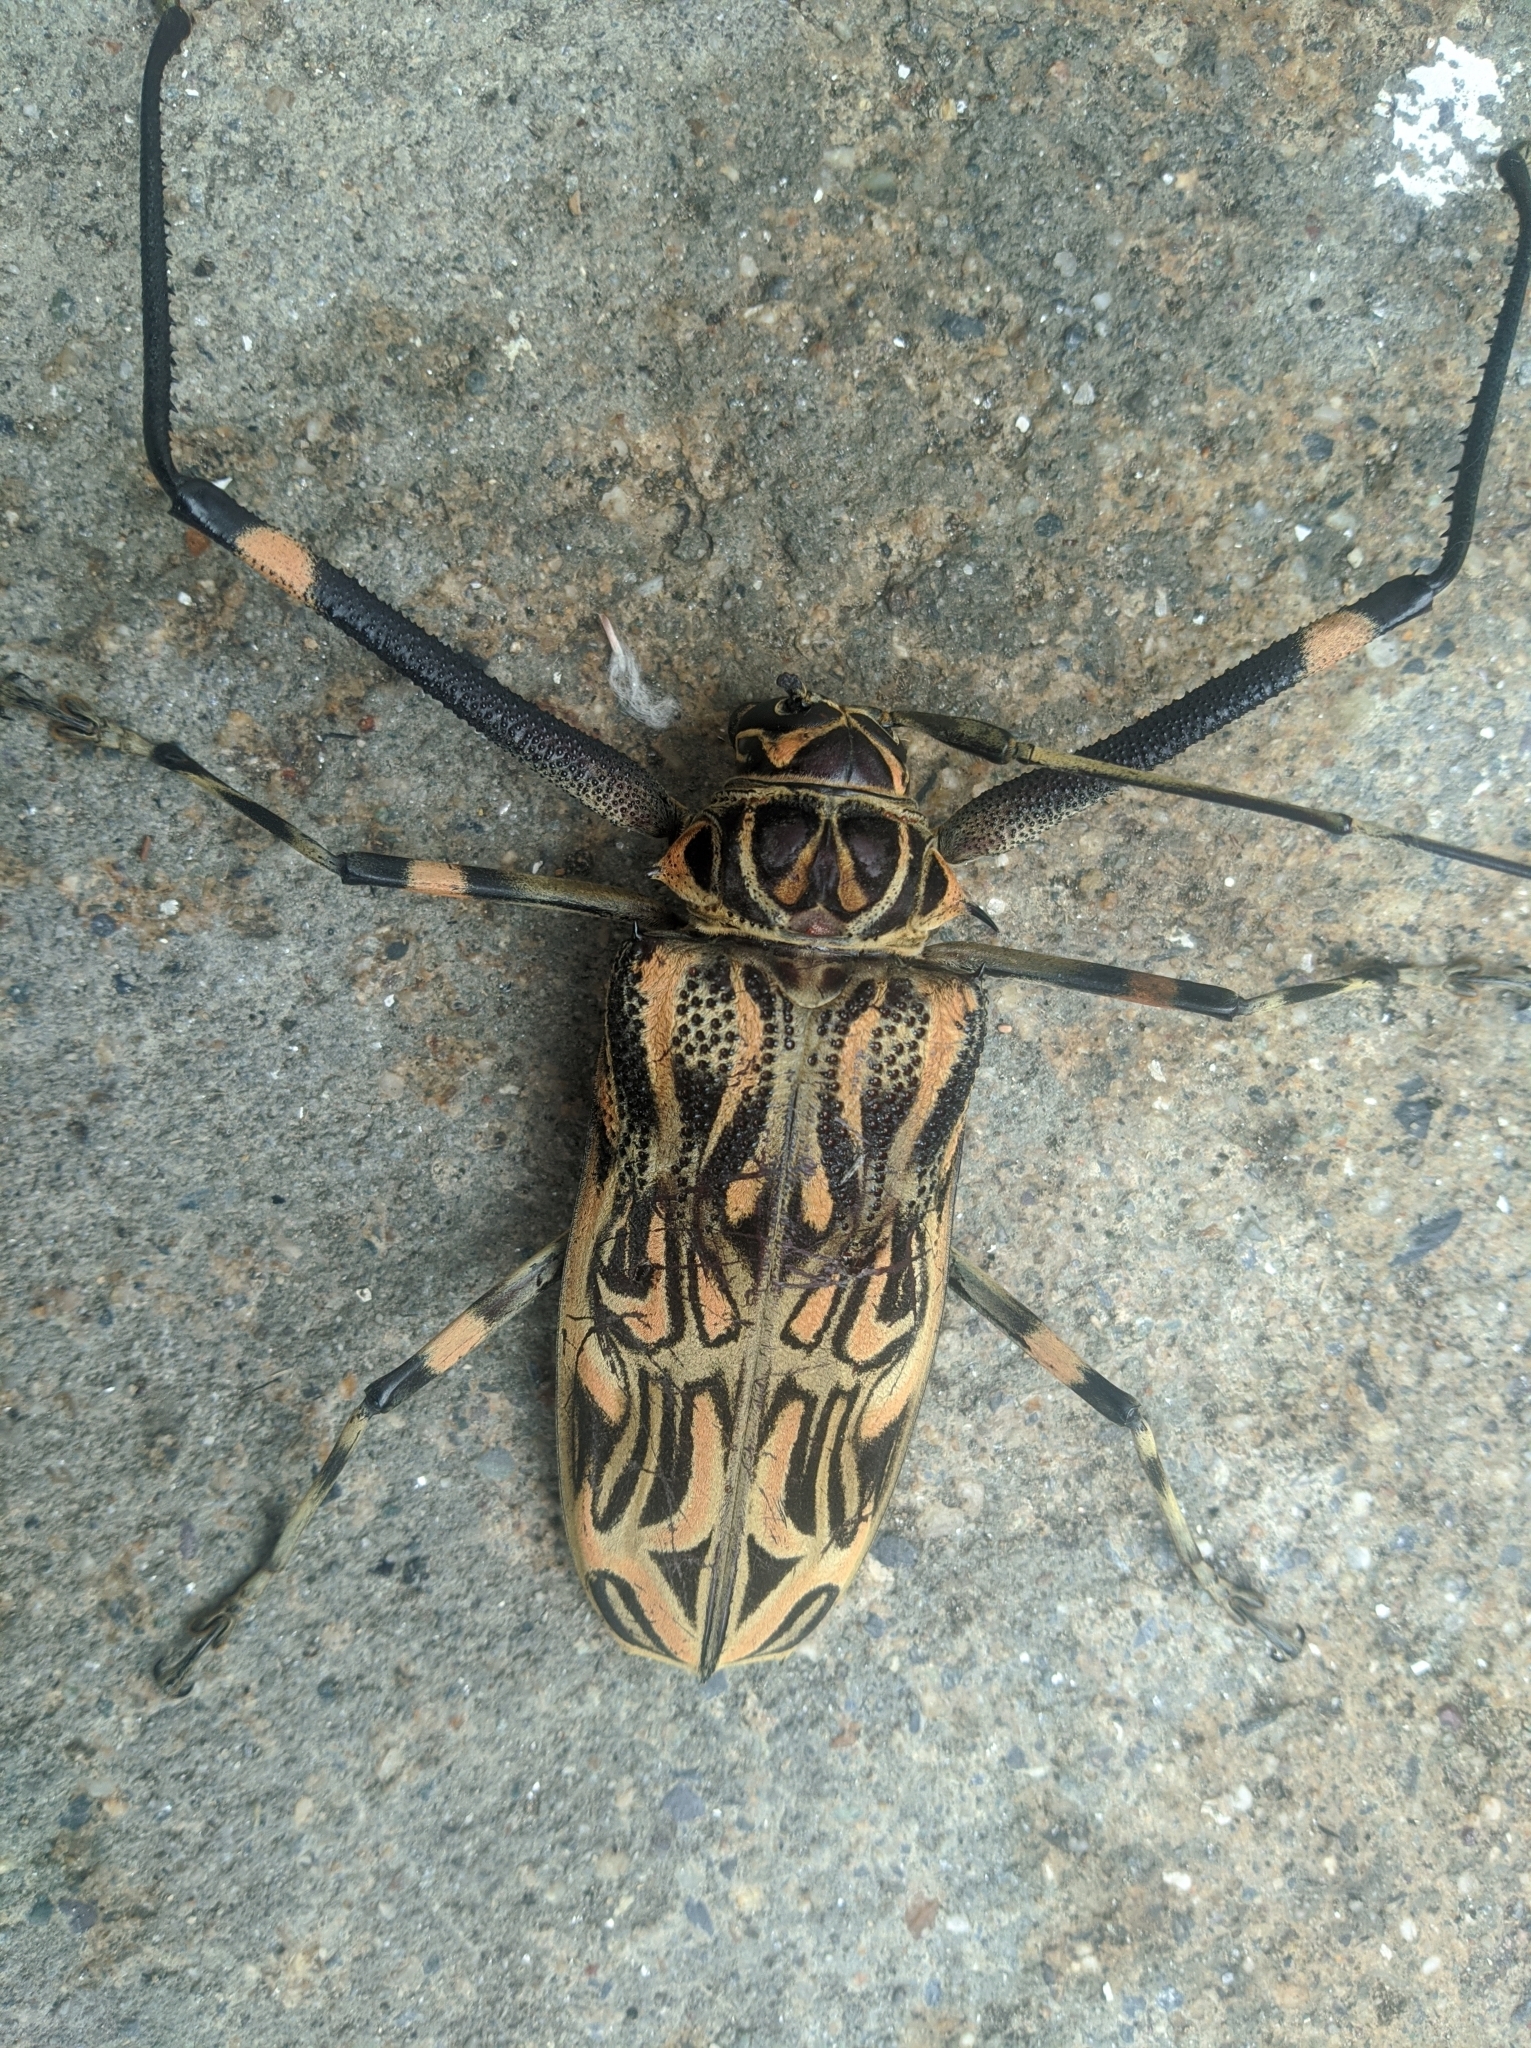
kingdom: Animalia
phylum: Arthropoda
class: Insecta
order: Coleoptera
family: Cerambycidae
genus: Acrocinus
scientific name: Acrocinus longimanus
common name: Arlequin
